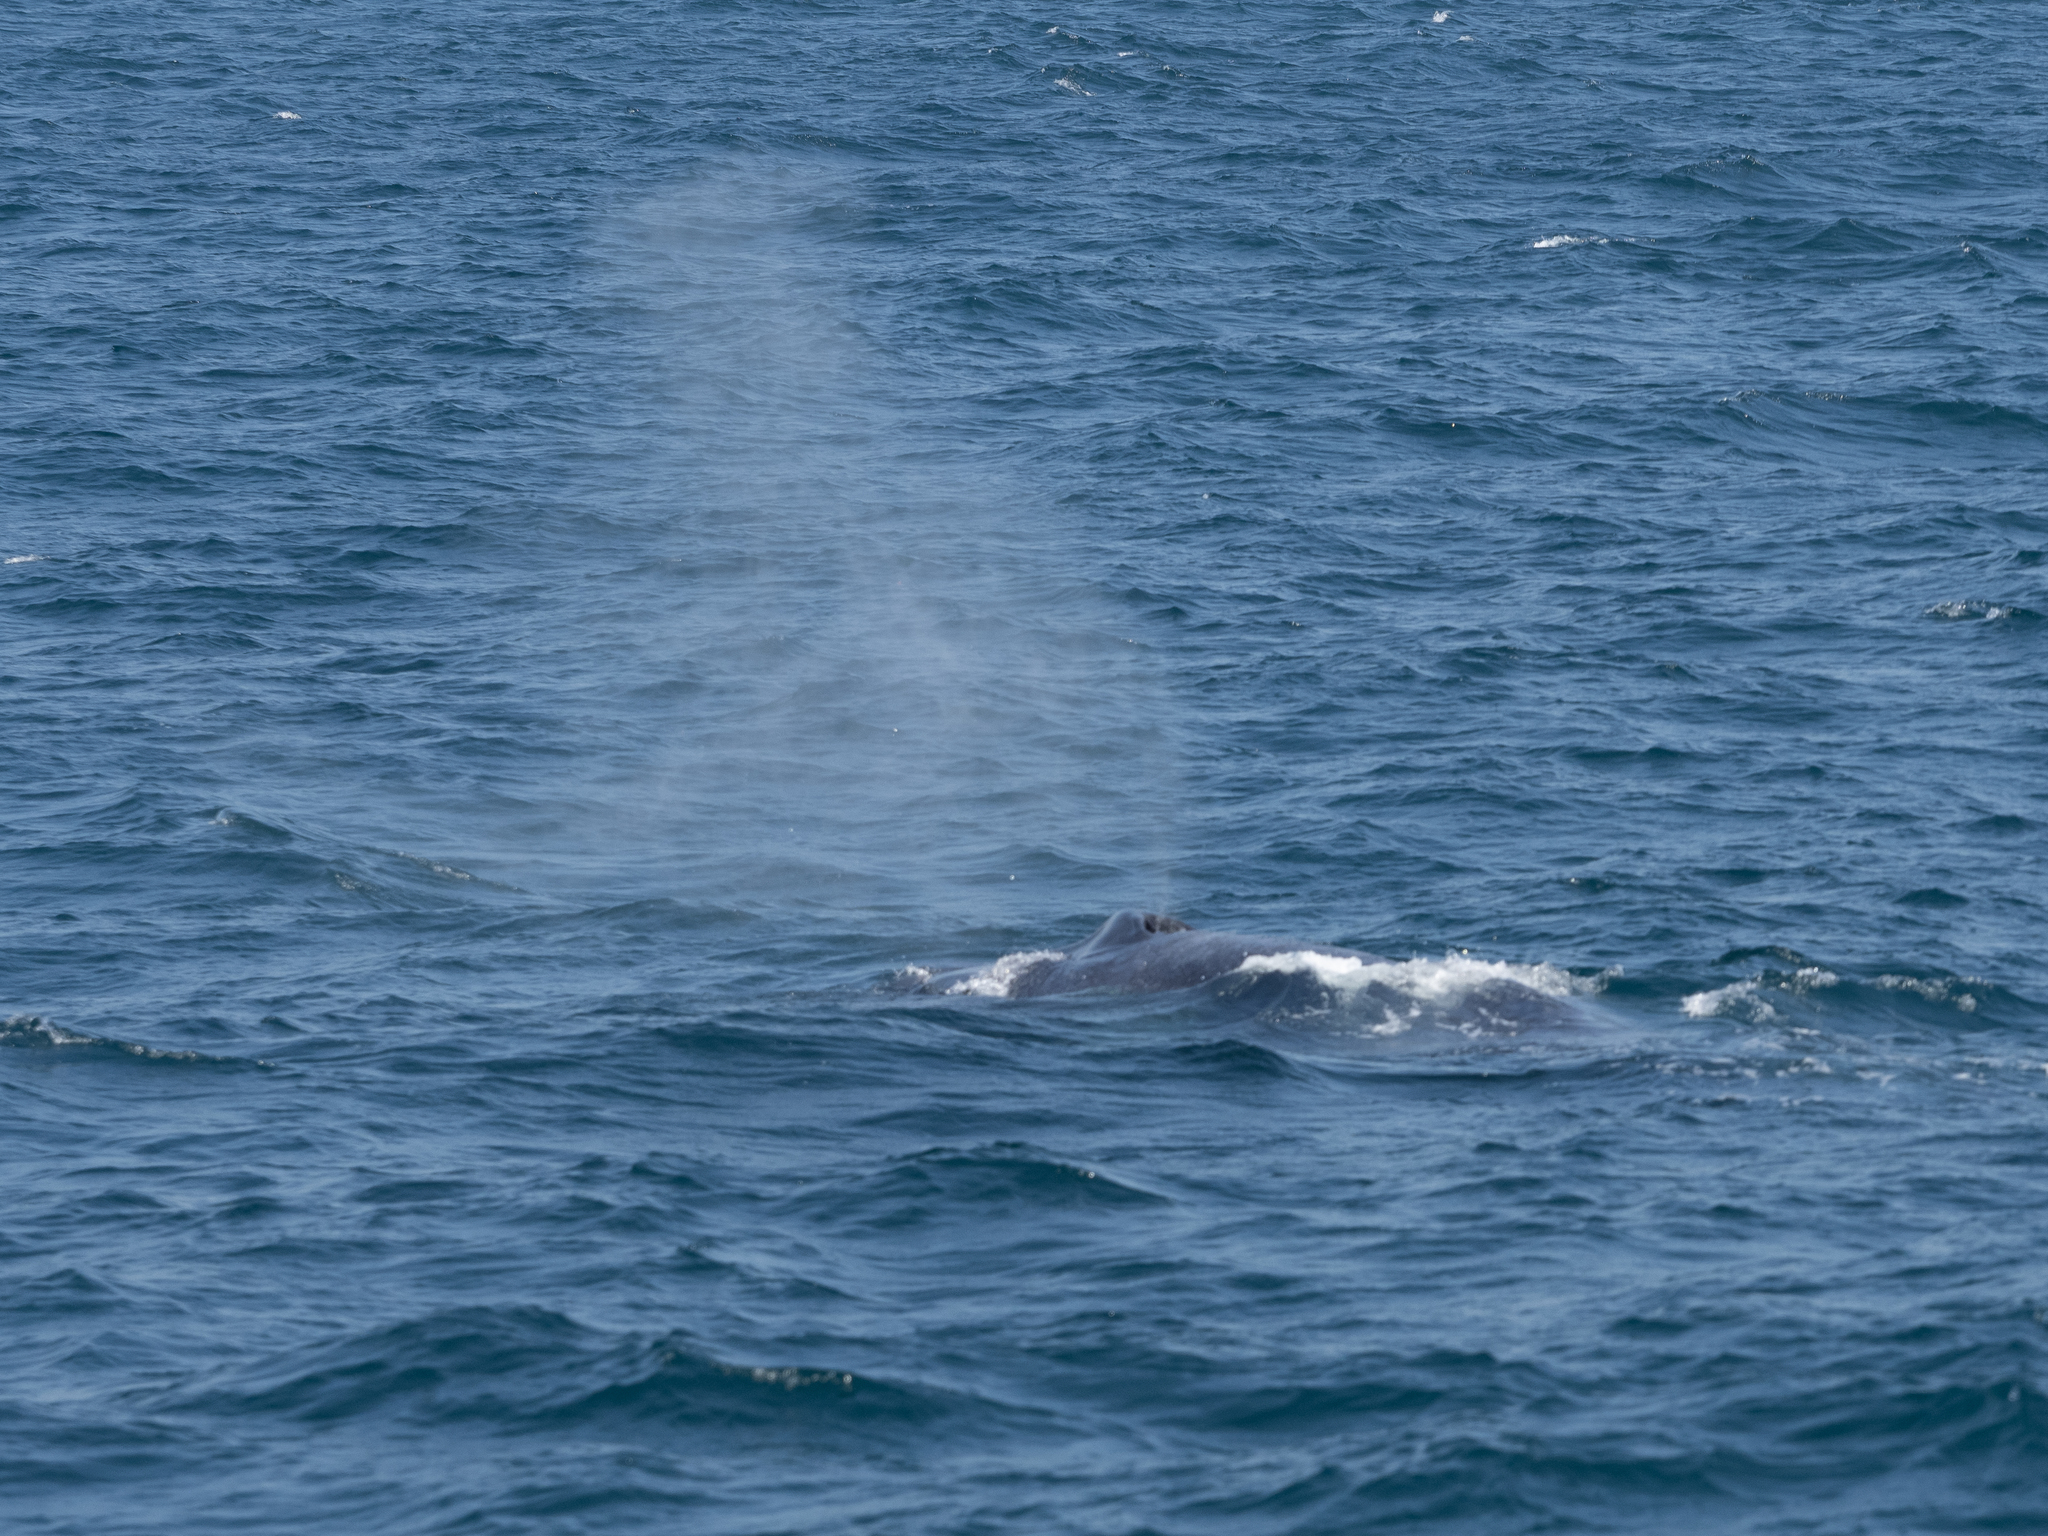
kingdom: Animalia
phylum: Chordata
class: Mammalia
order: Cetacea
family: Balaenopteridae
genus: Balaenoptera
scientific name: Balaenoptera musculus
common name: Blue whale
